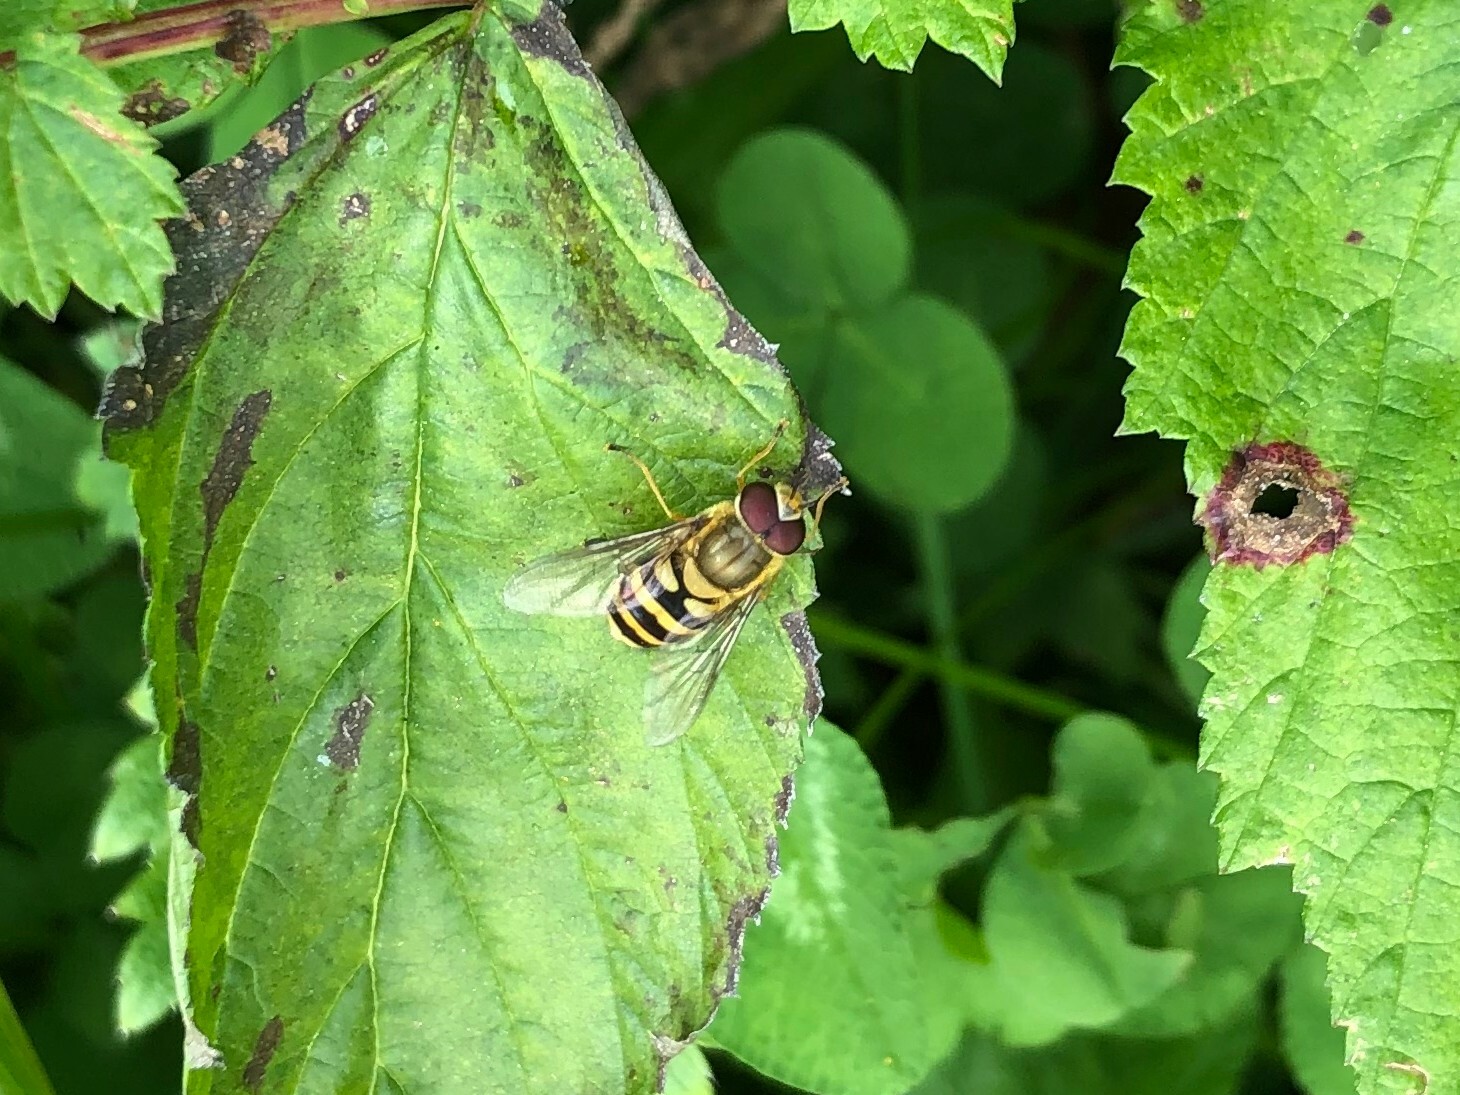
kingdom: Animalia
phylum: Arthropoda
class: Insecta
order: Diptera
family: Syrphidae
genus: Syrphus
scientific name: Syrphus
